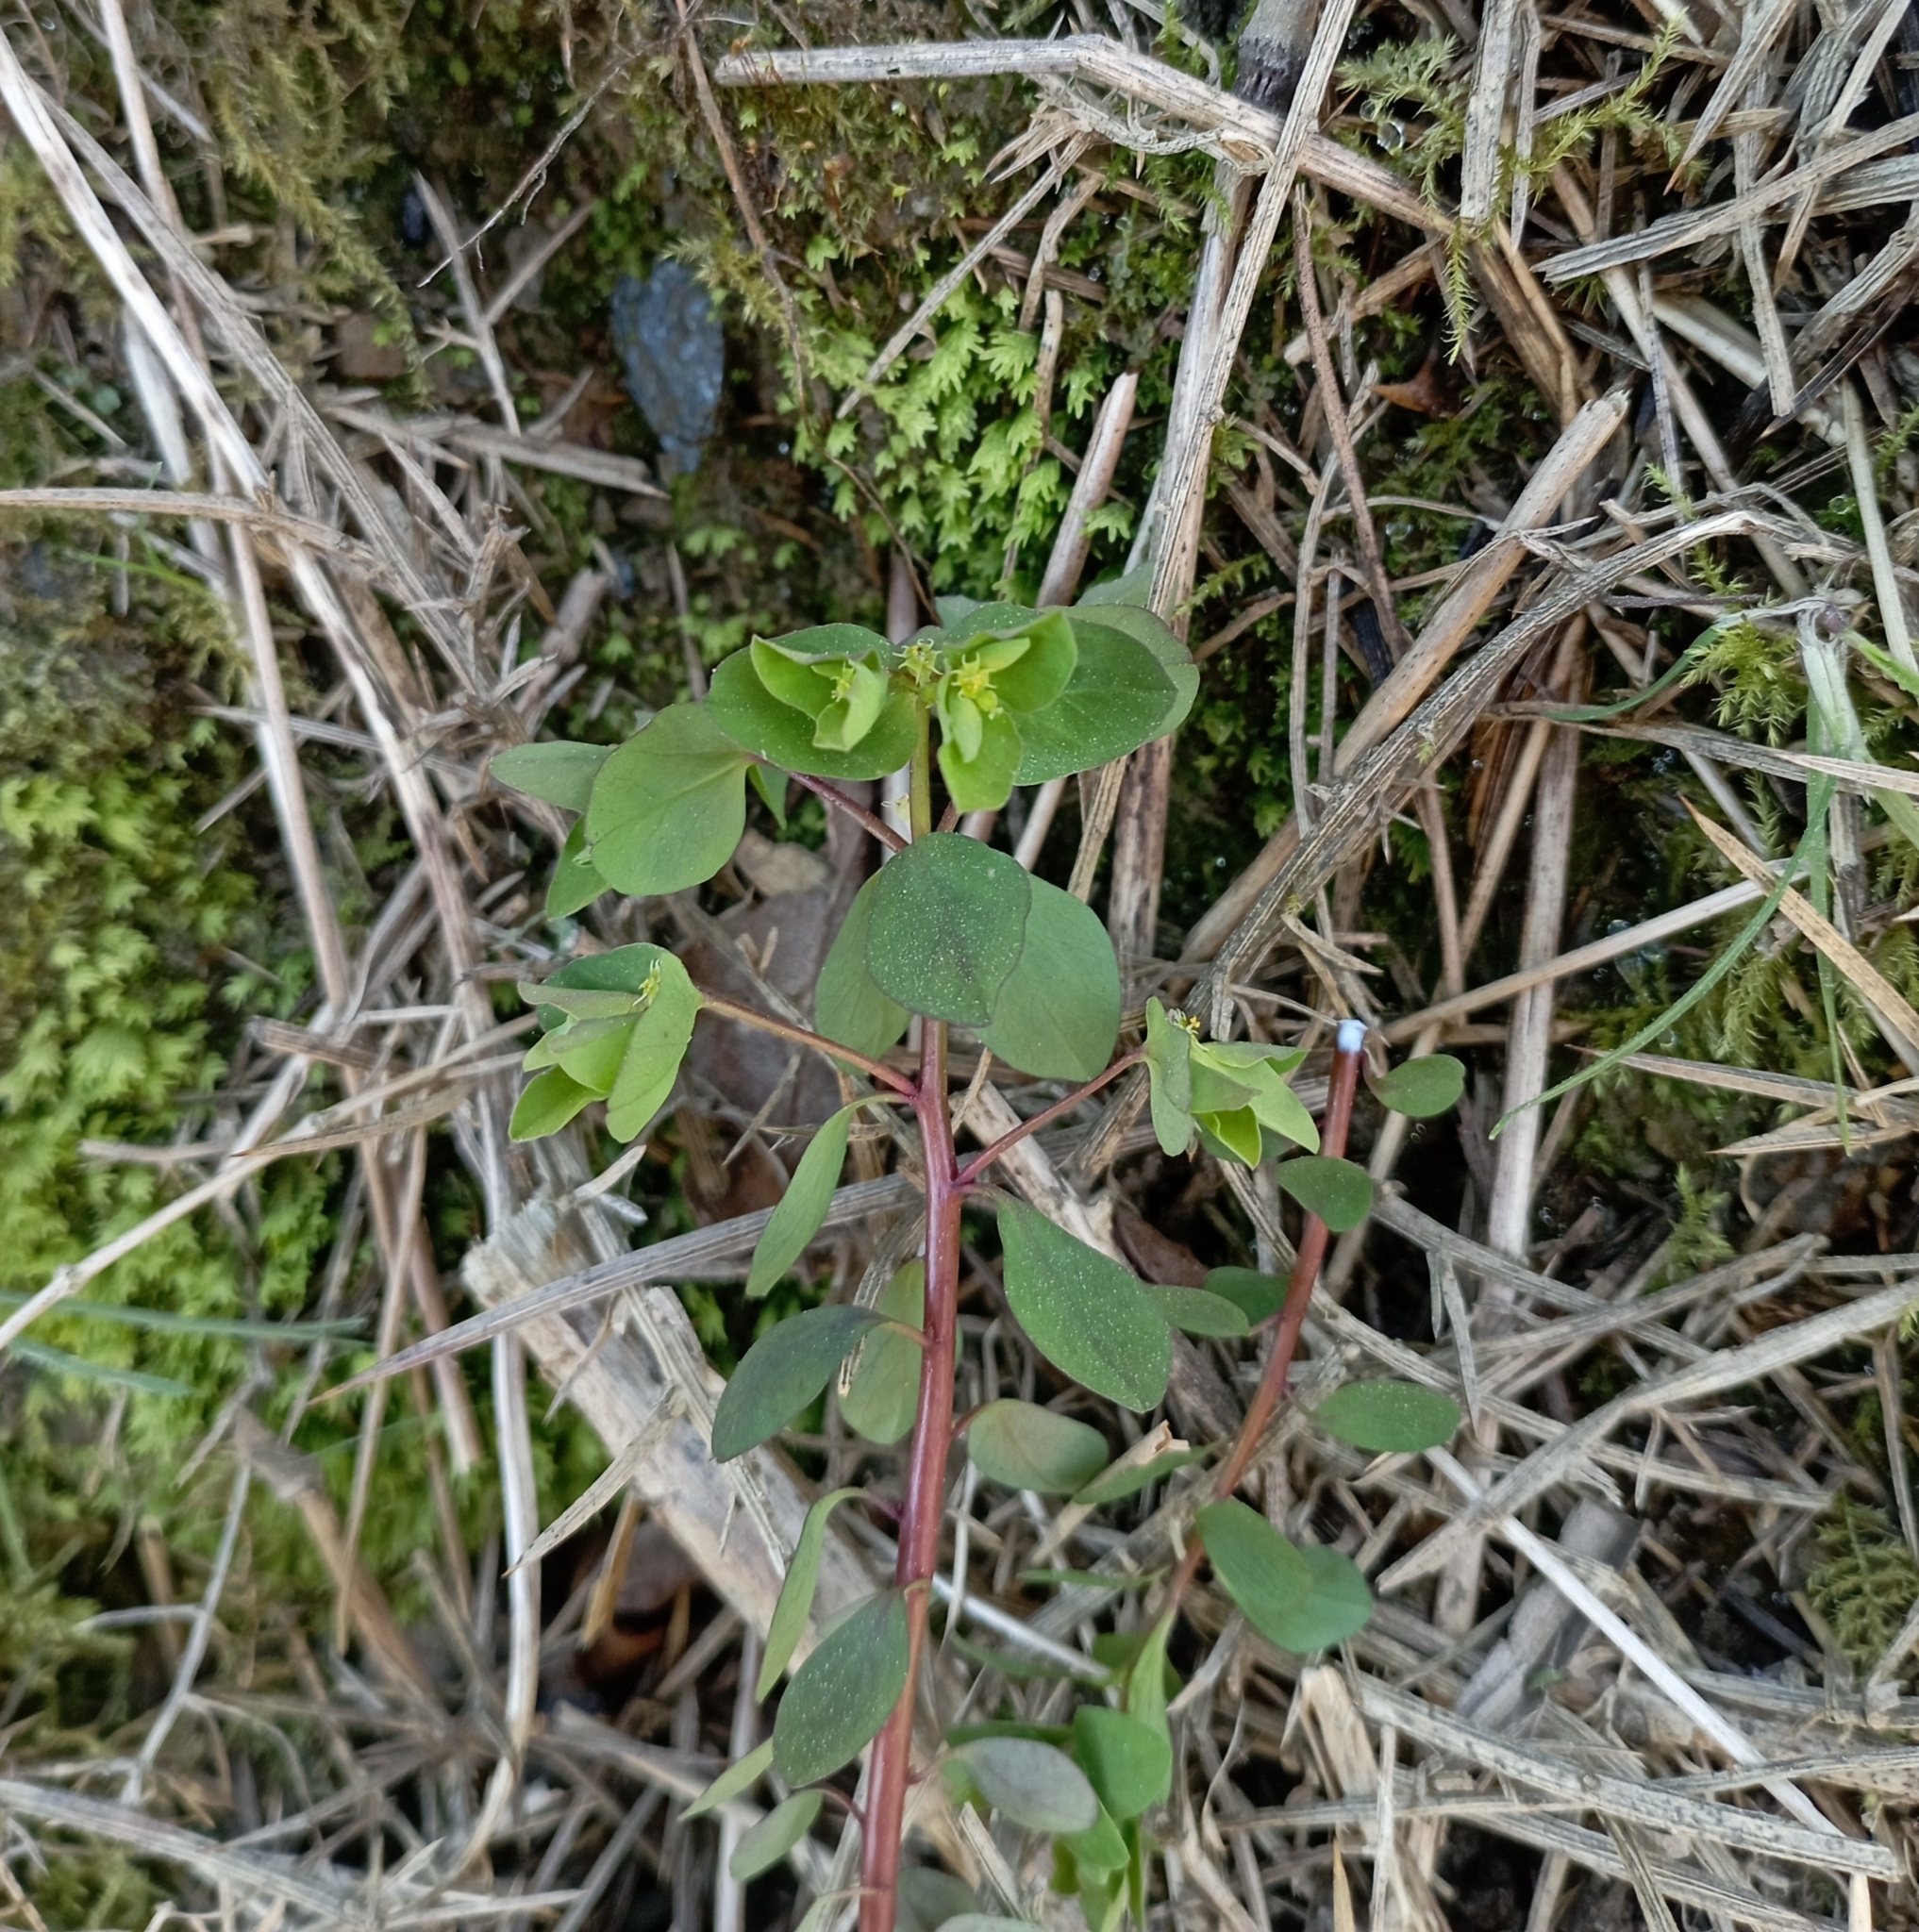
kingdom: Plantae
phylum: Tracheophyta
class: Magnoliopsida
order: Malpighiales
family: Euphorbiaceae
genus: Euphorbia
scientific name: Euphorbia peplus
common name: Petty spurge
